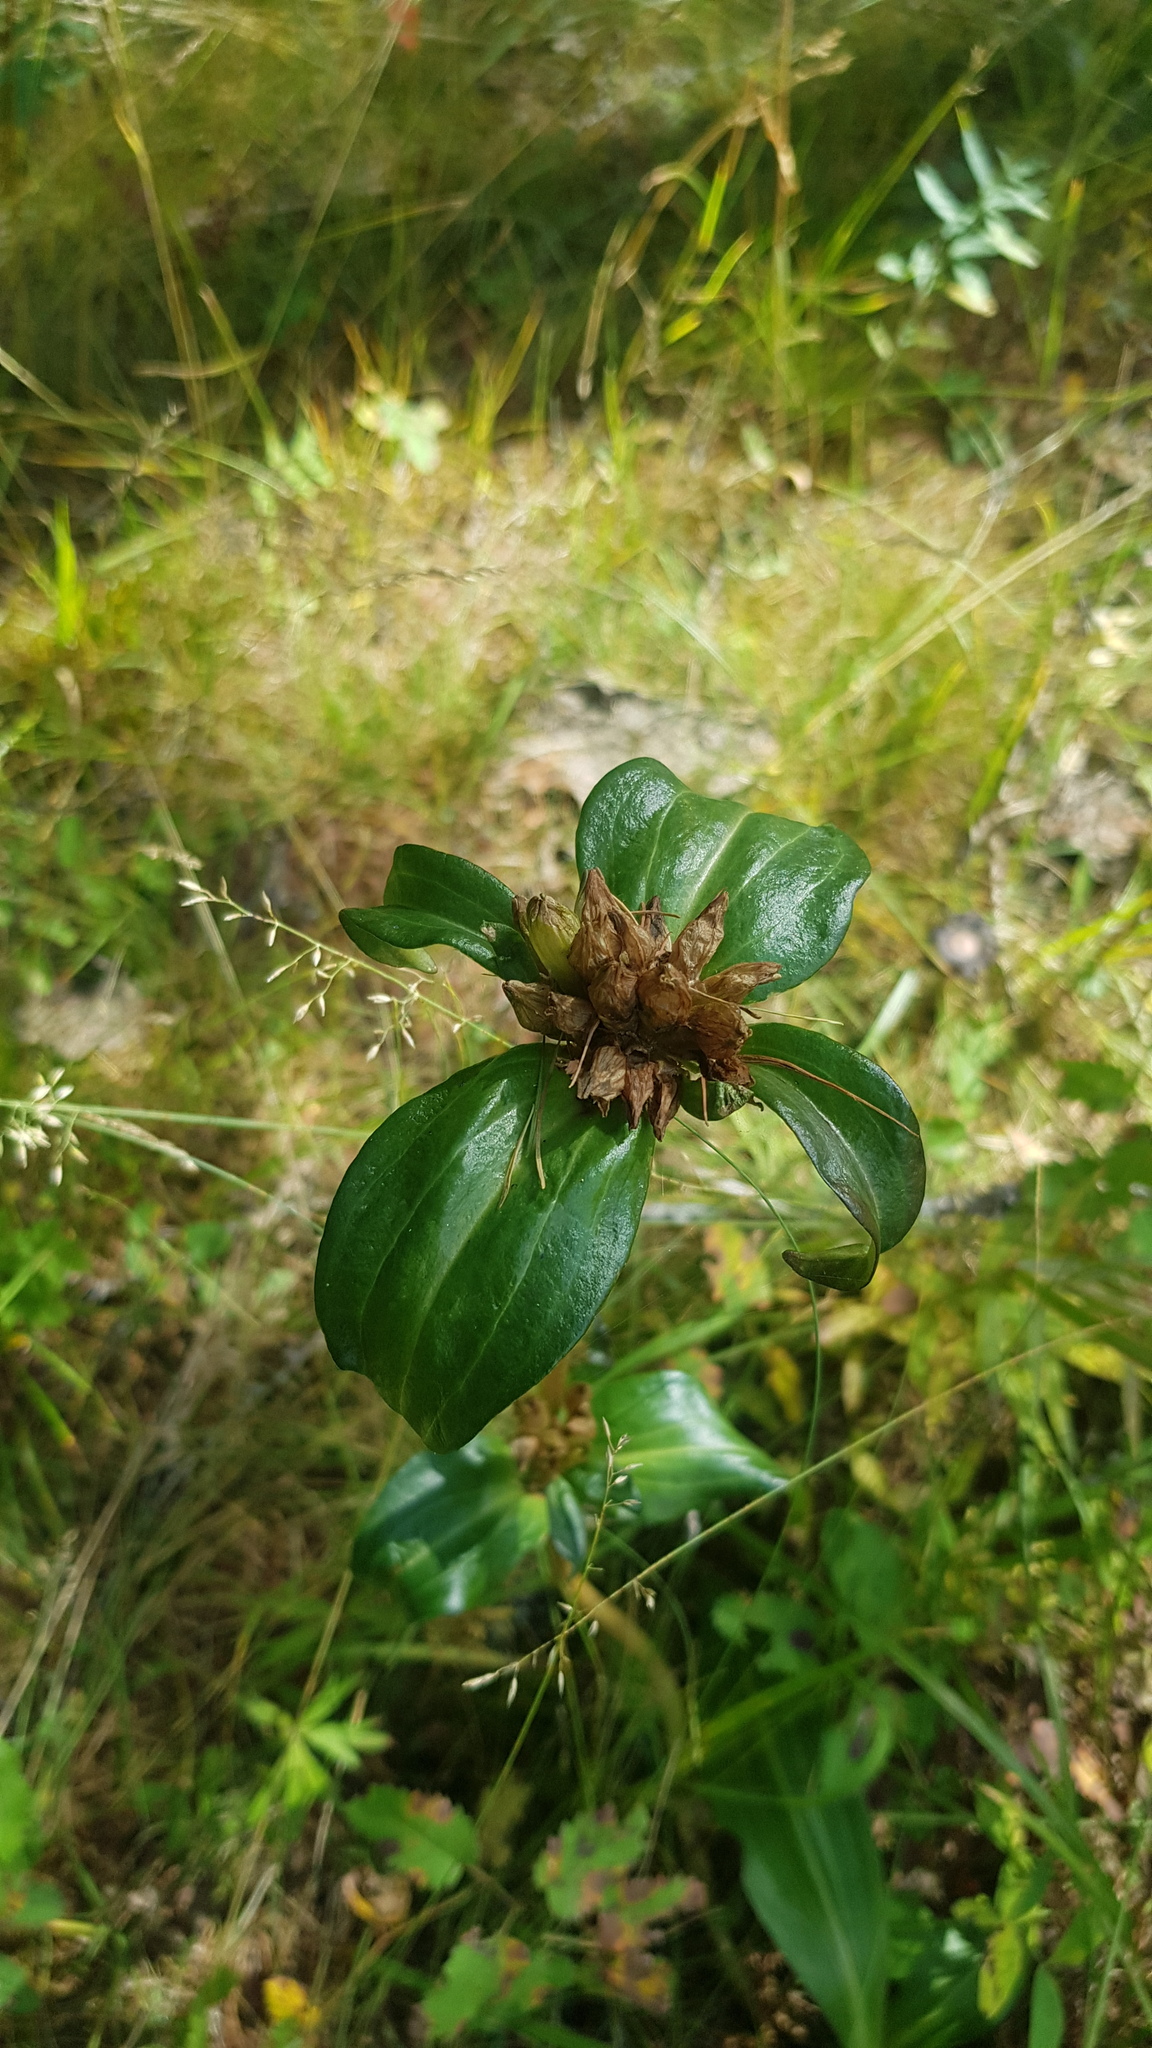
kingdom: Plantae
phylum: Tracheophyta
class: Magnoliopsida
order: Gentianales
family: Gentianaceae
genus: Gentiana
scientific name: Gentiana macrophylla
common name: Large-leaf gentian
